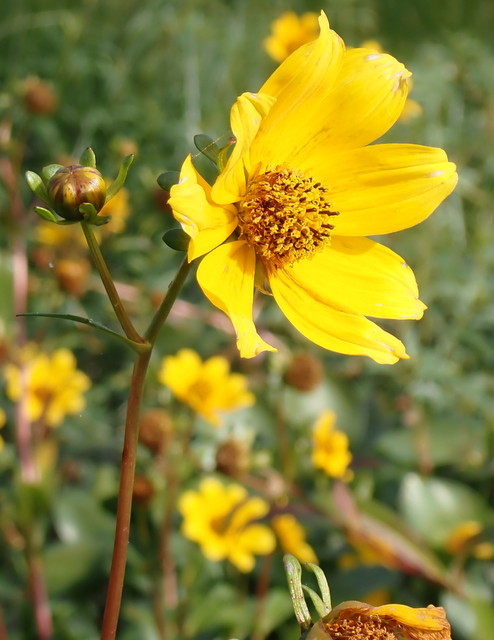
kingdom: Plantae
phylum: Tracheophyta
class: Magnoliopsida
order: Asterales
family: Asteraceae
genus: Bidens
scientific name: Bidens laevis
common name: Larger bur-marigold
